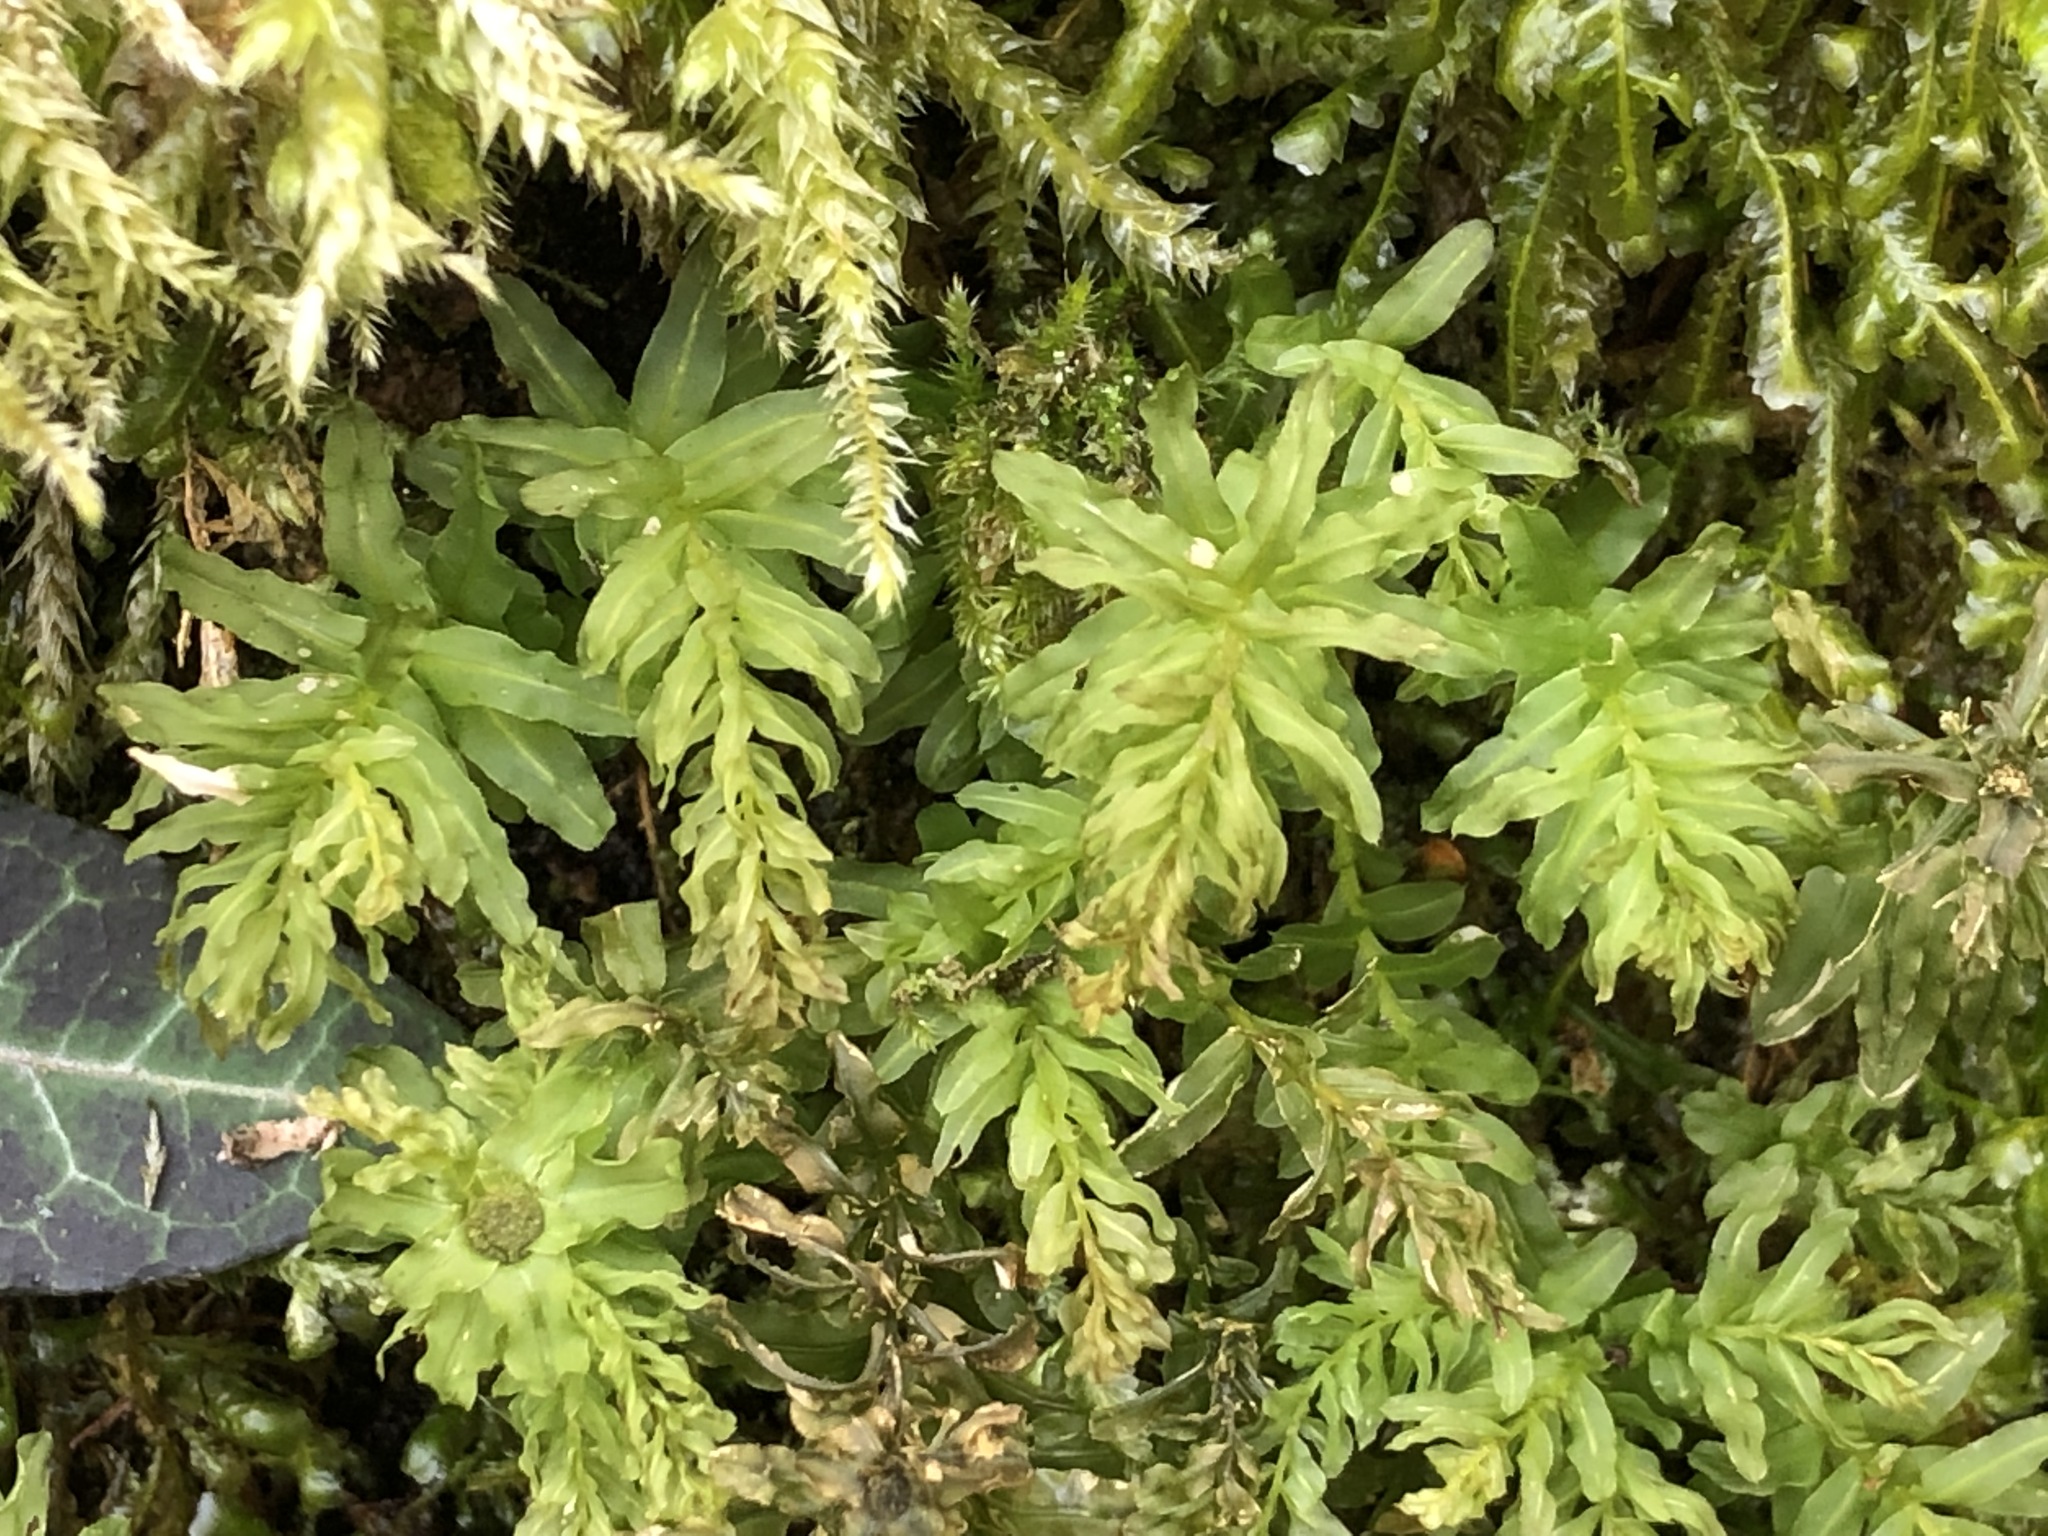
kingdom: Plantae
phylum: Bryophyta
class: Bryopsida
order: Bryales
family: Mniaceae
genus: Plagiomnium
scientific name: Plagiomnium undulatum
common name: Hart's-tongue thyme-moss
